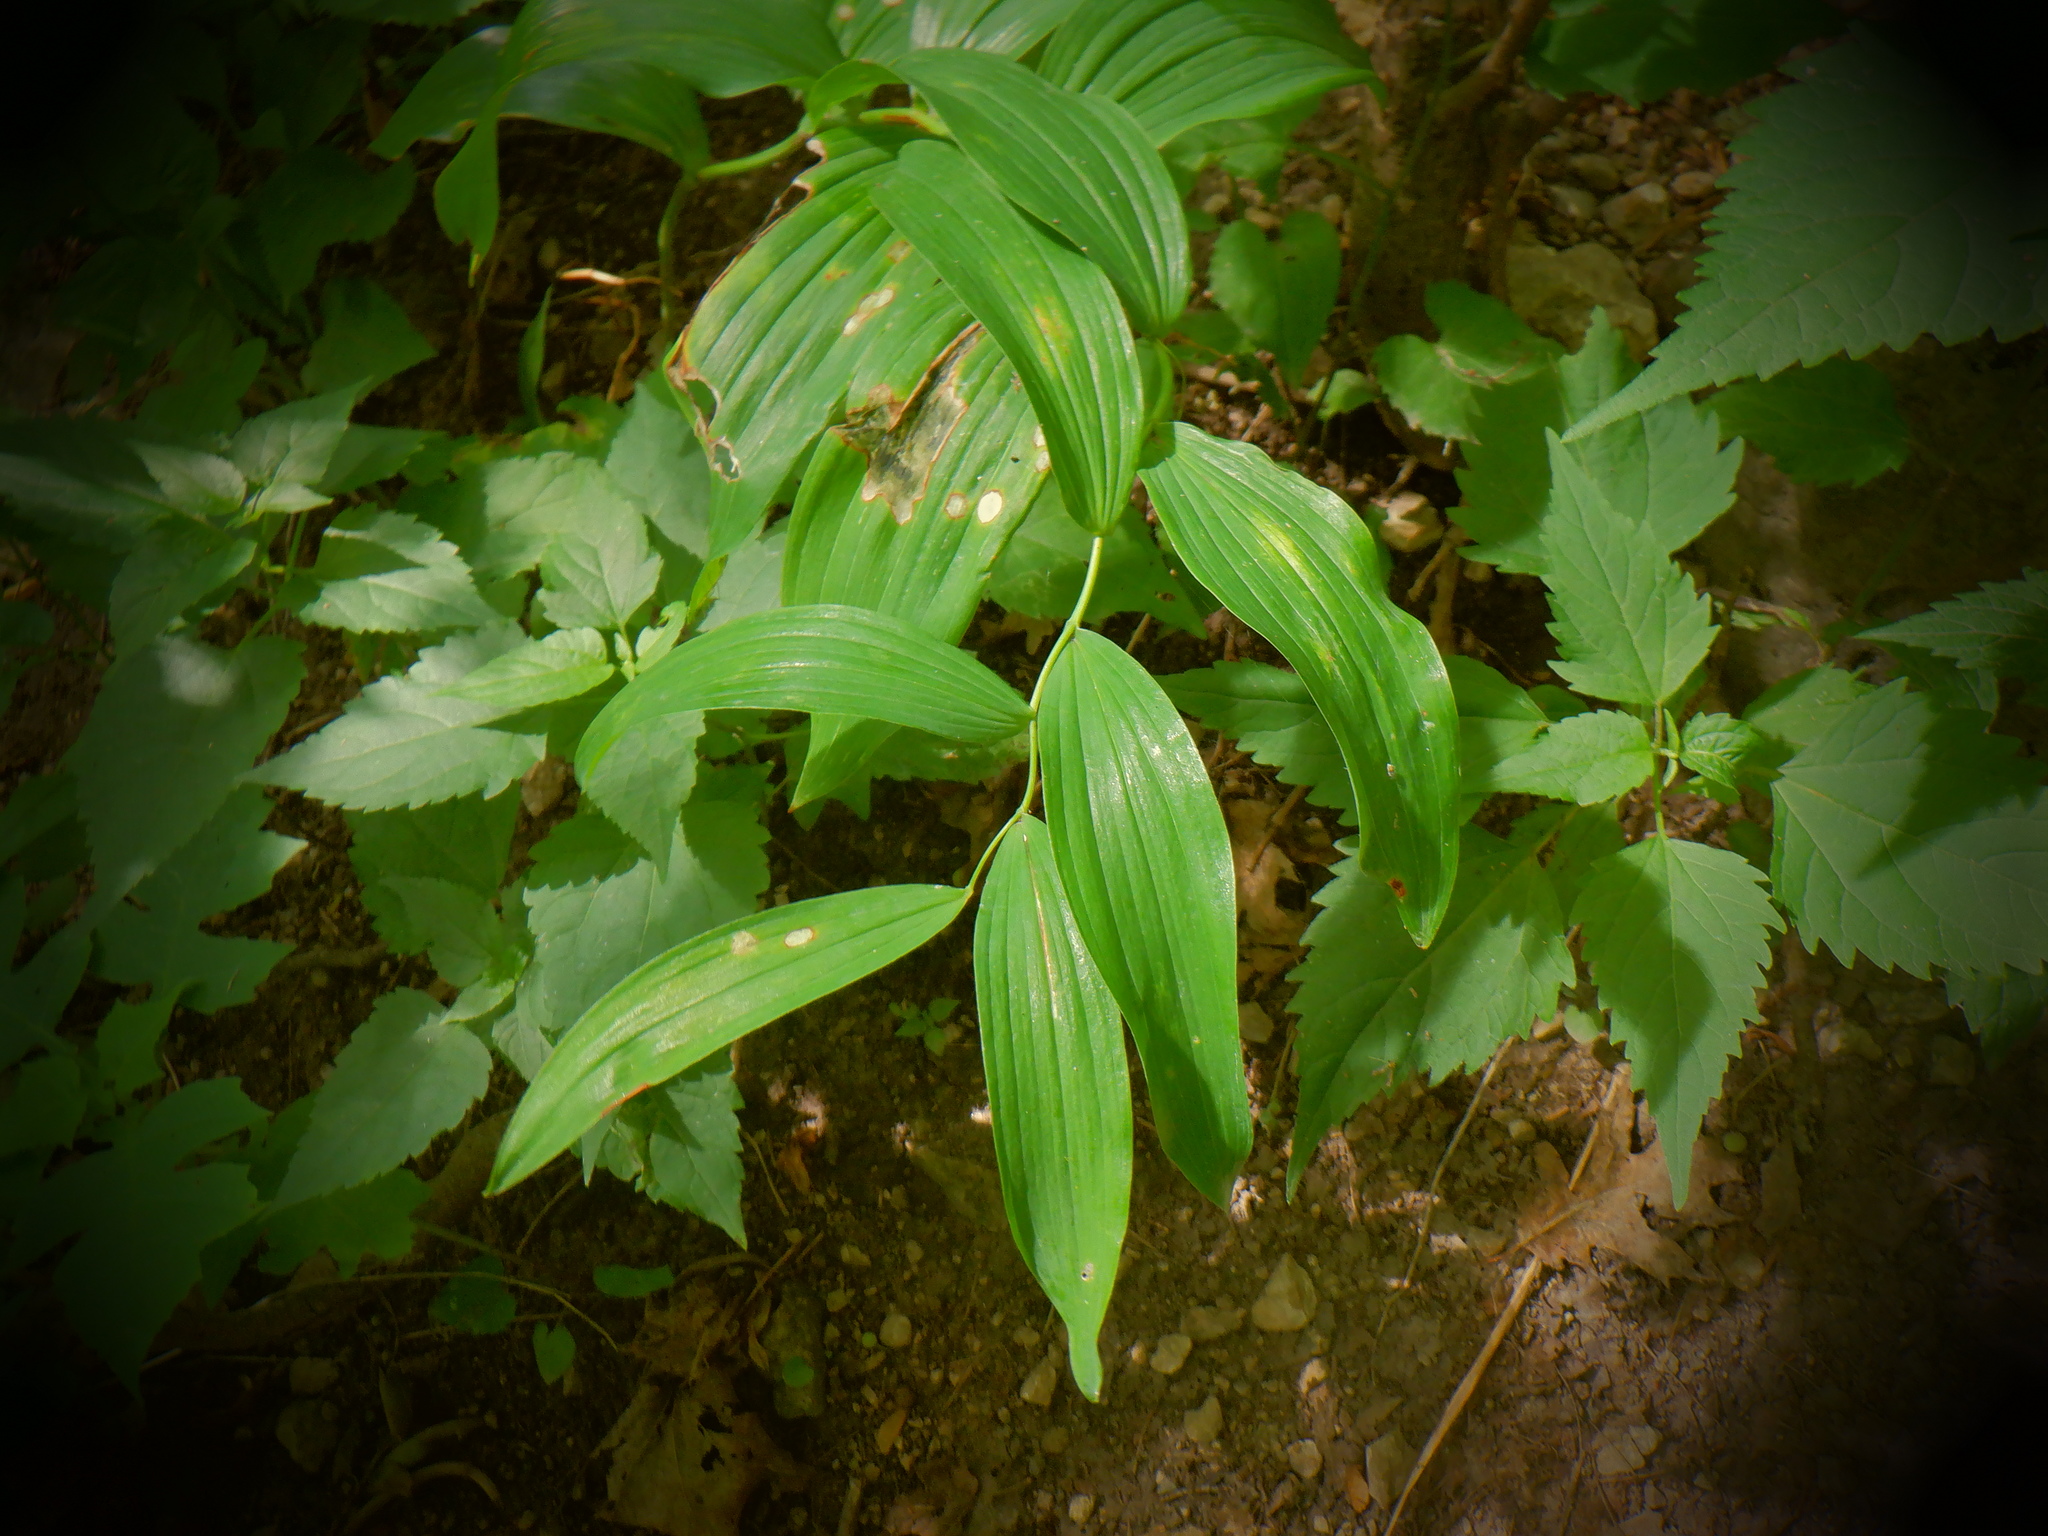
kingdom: Plantae
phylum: Tracheophyta
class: Liliopsida
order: Asparagales
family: Asparagaceae
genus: Polygonatum
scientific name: Polygonatum biflorum
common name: American solomon's-seal
